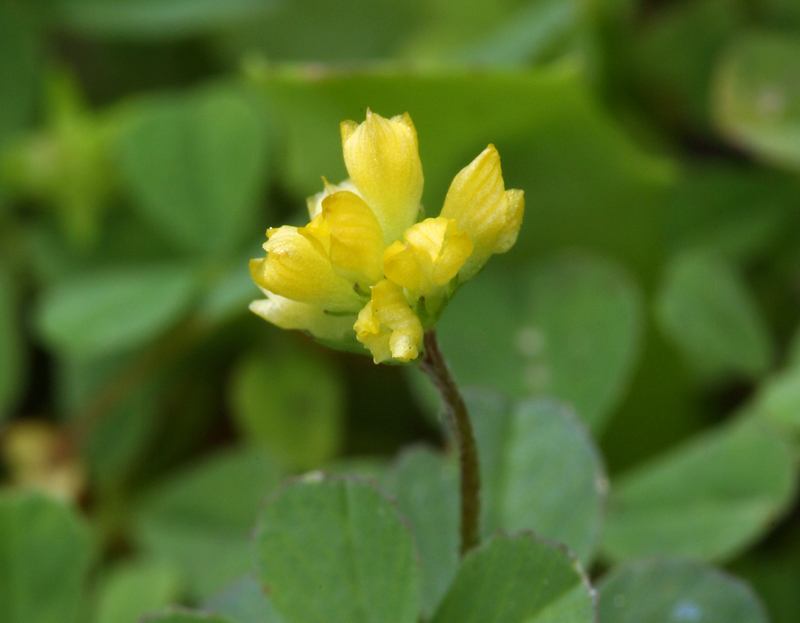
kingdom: Plantae
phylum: Tracheophyta
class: Magnoliopsida
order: Fabales
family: Fabaceae
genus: Trifolium
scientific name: Trifolium dubium
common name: Suckling clover
